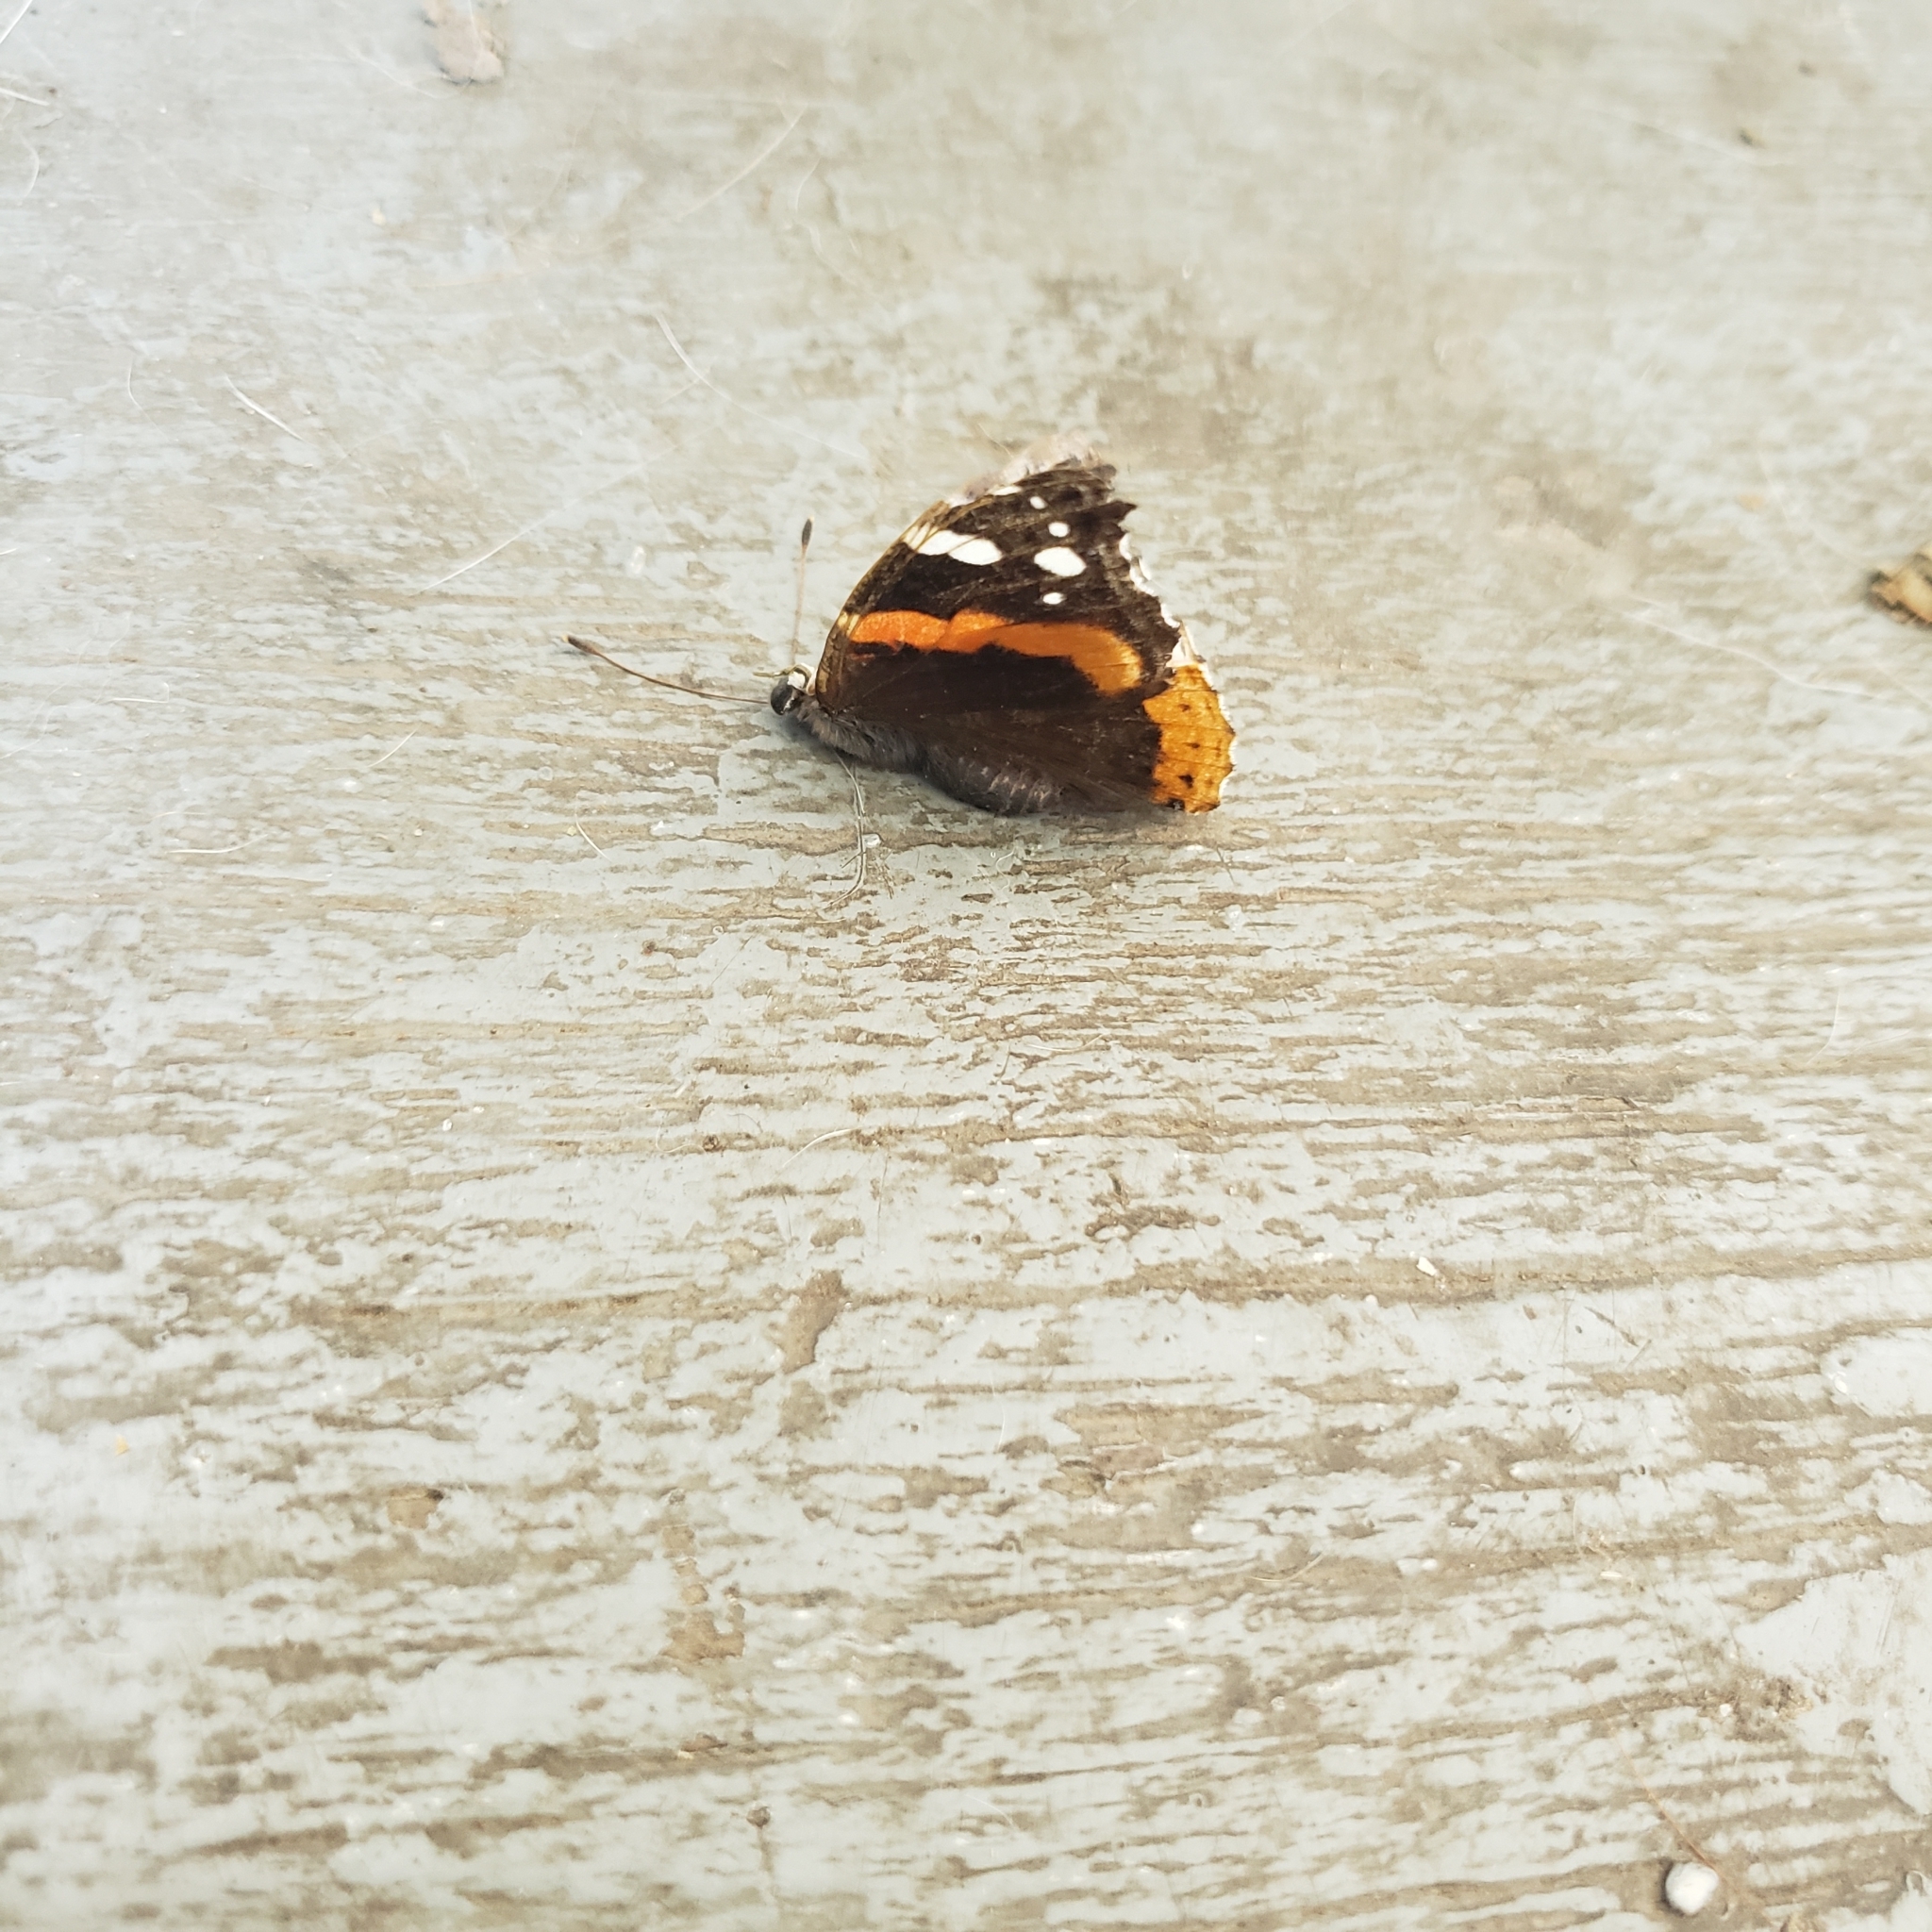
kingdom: Animalia
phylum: Arthropoda
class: Insecta
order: Lepidoptera
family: Nymphalidae
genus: Vanessa
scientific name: Vanessa atalanta
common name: Red admiral
